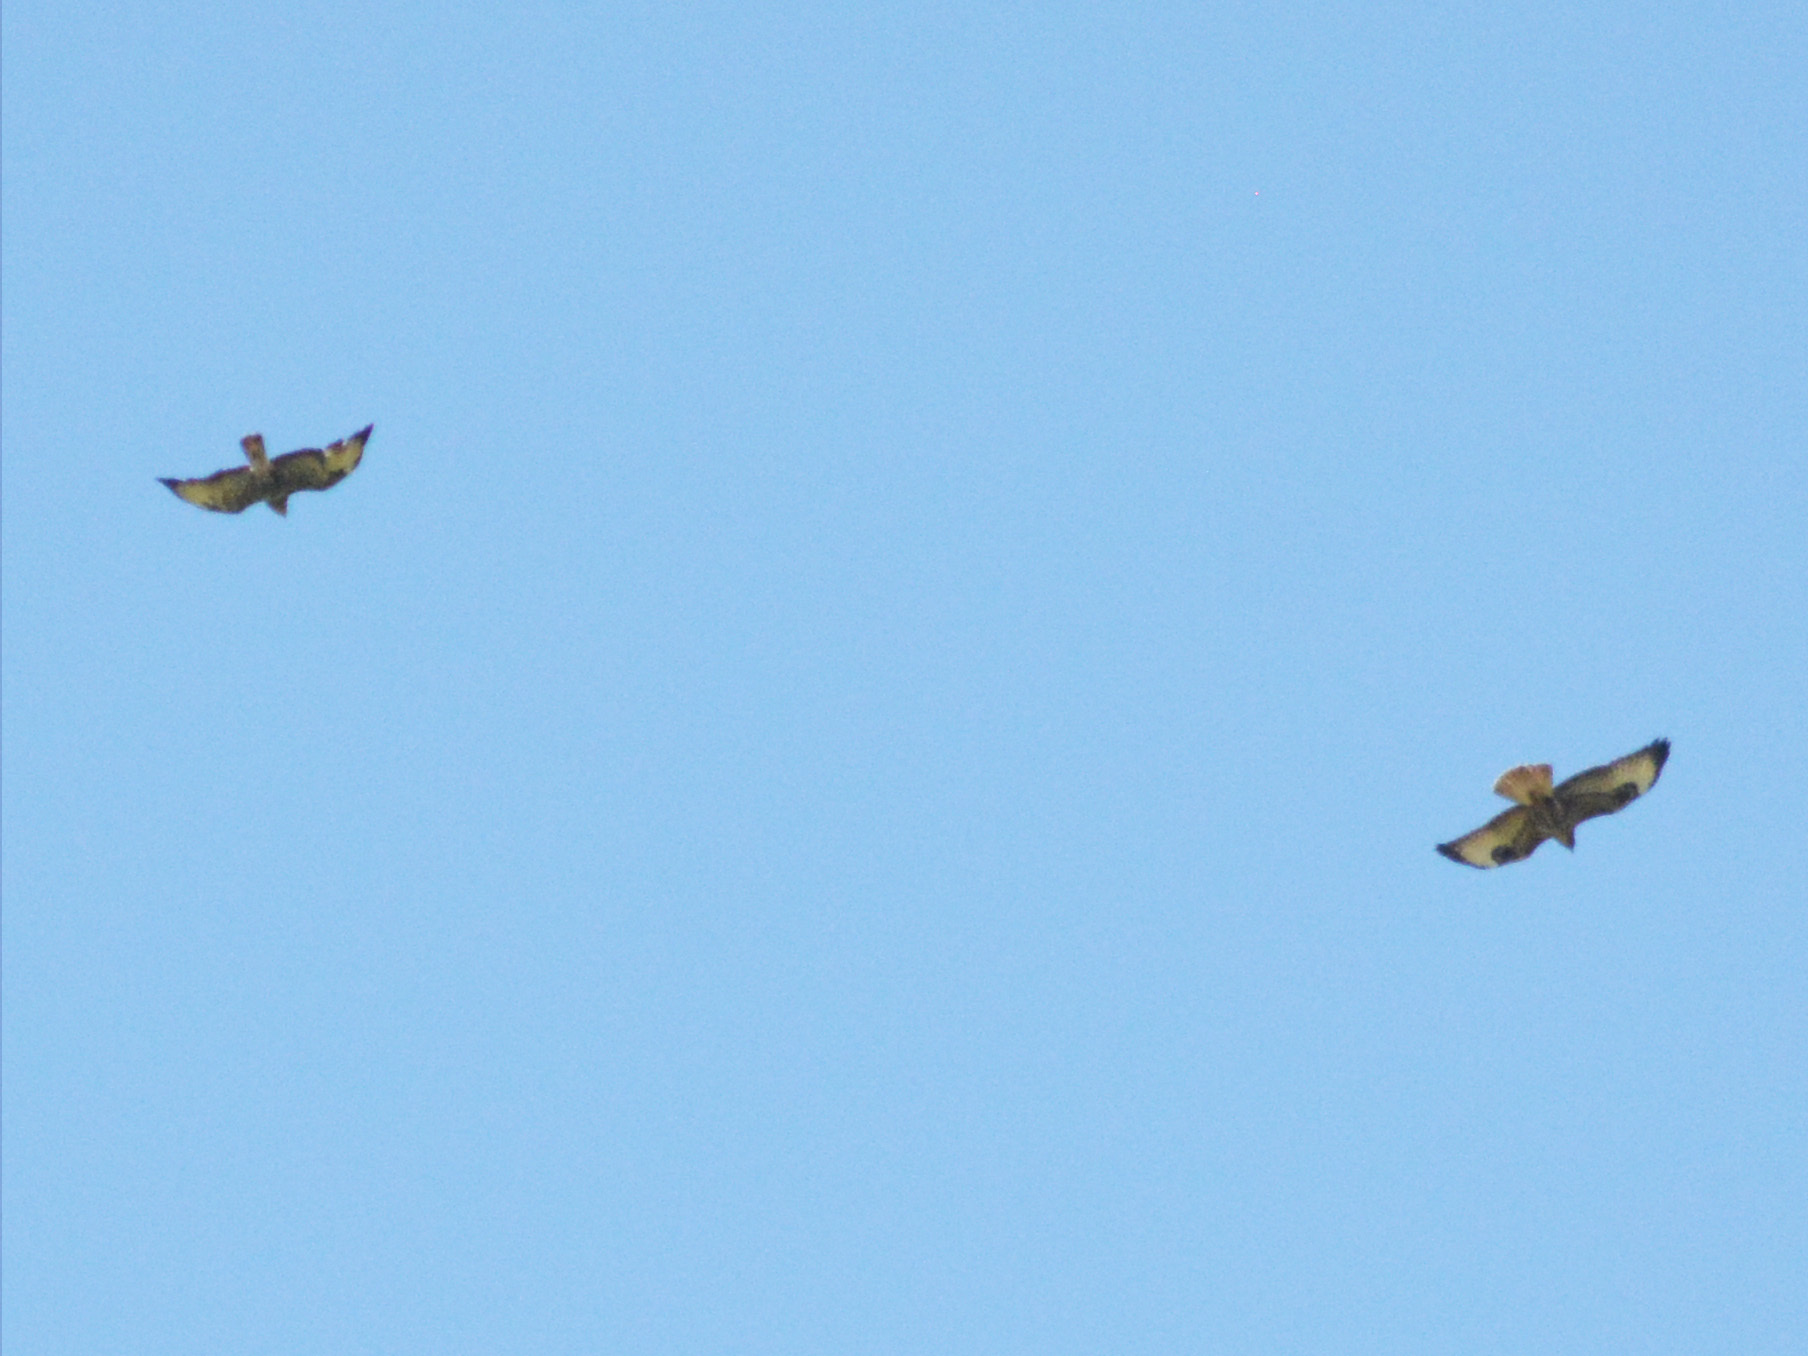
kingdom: Animalia
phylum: Chordata
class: Aves
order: Accipitriformes
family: Accipitridae
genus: Buteo
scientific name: Buteo buteo
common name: Common buzzard
